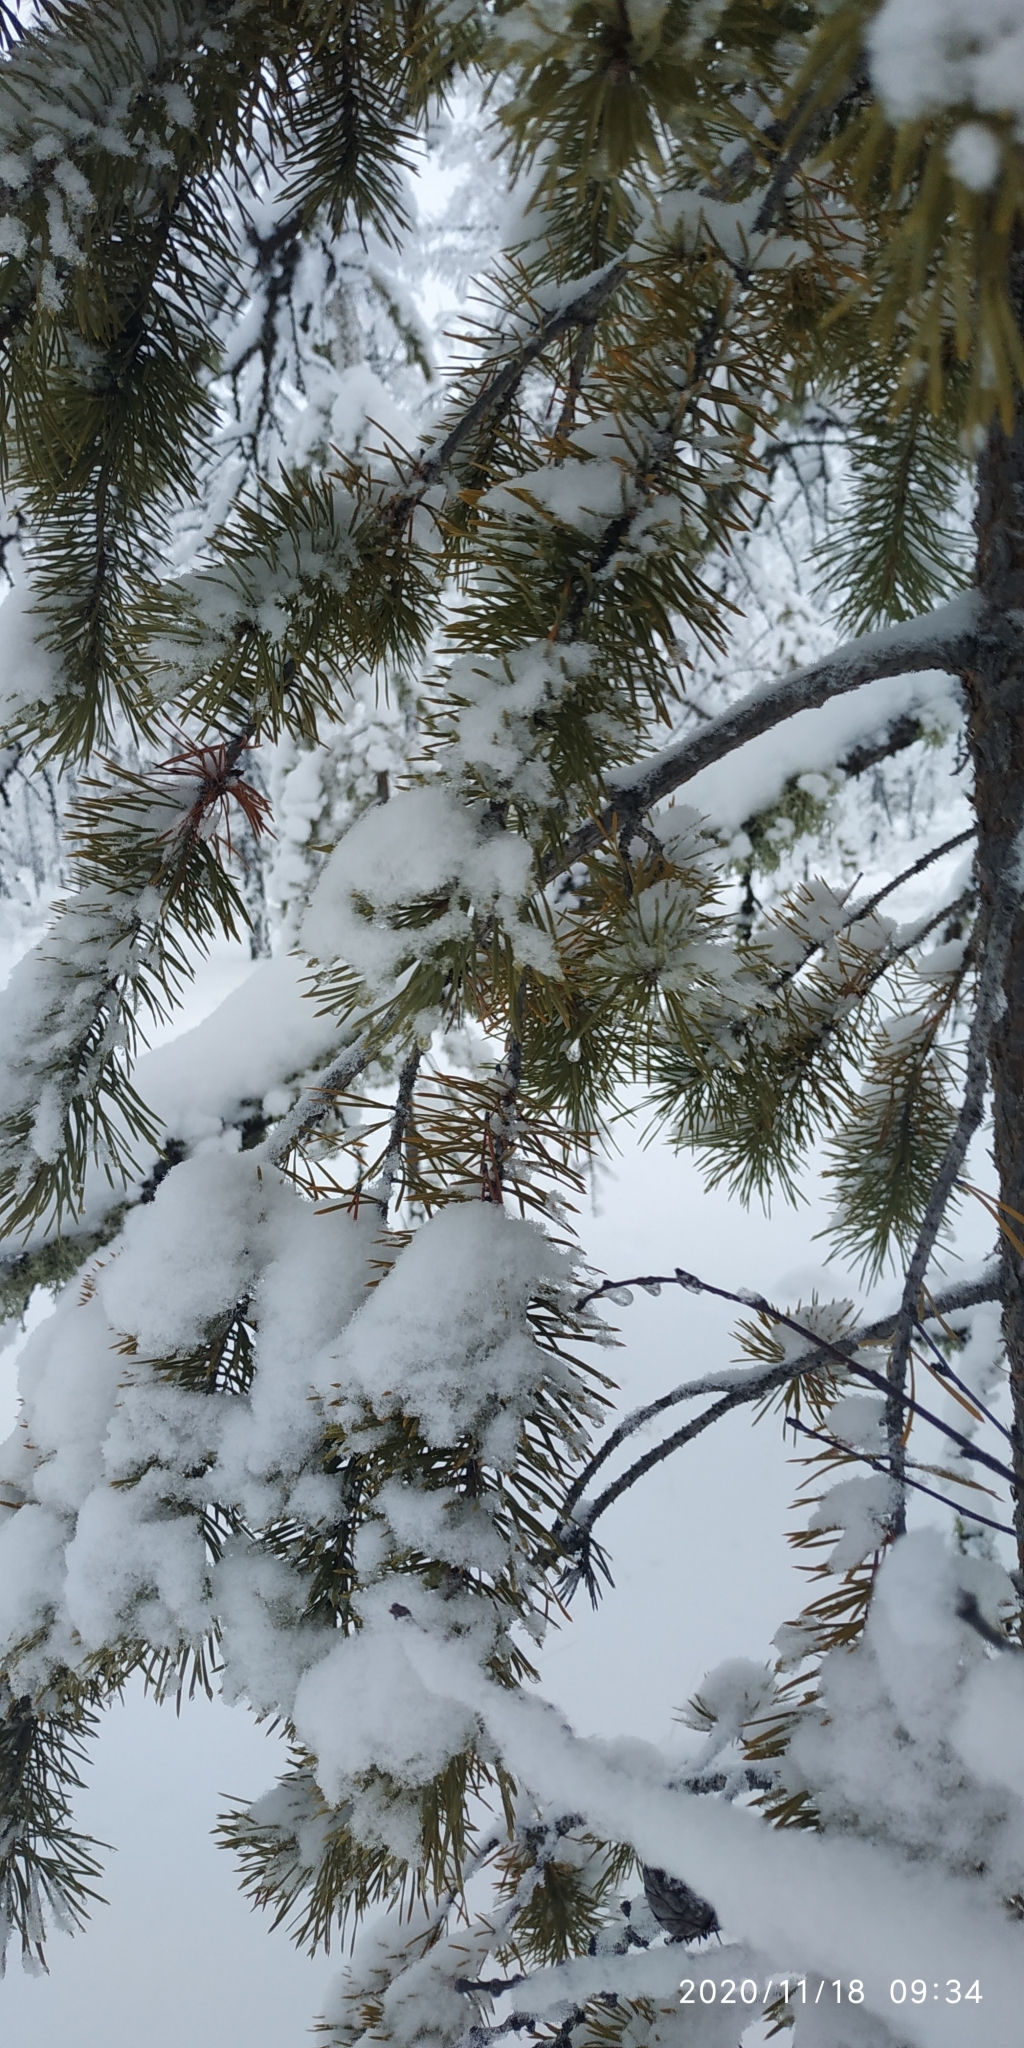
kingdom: Plantae
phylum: Tracheophyta
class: Pinopsida
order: Pinales
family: Pinaceae
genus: Pinus
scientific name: Pinus sylvestris
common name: Scots pine
